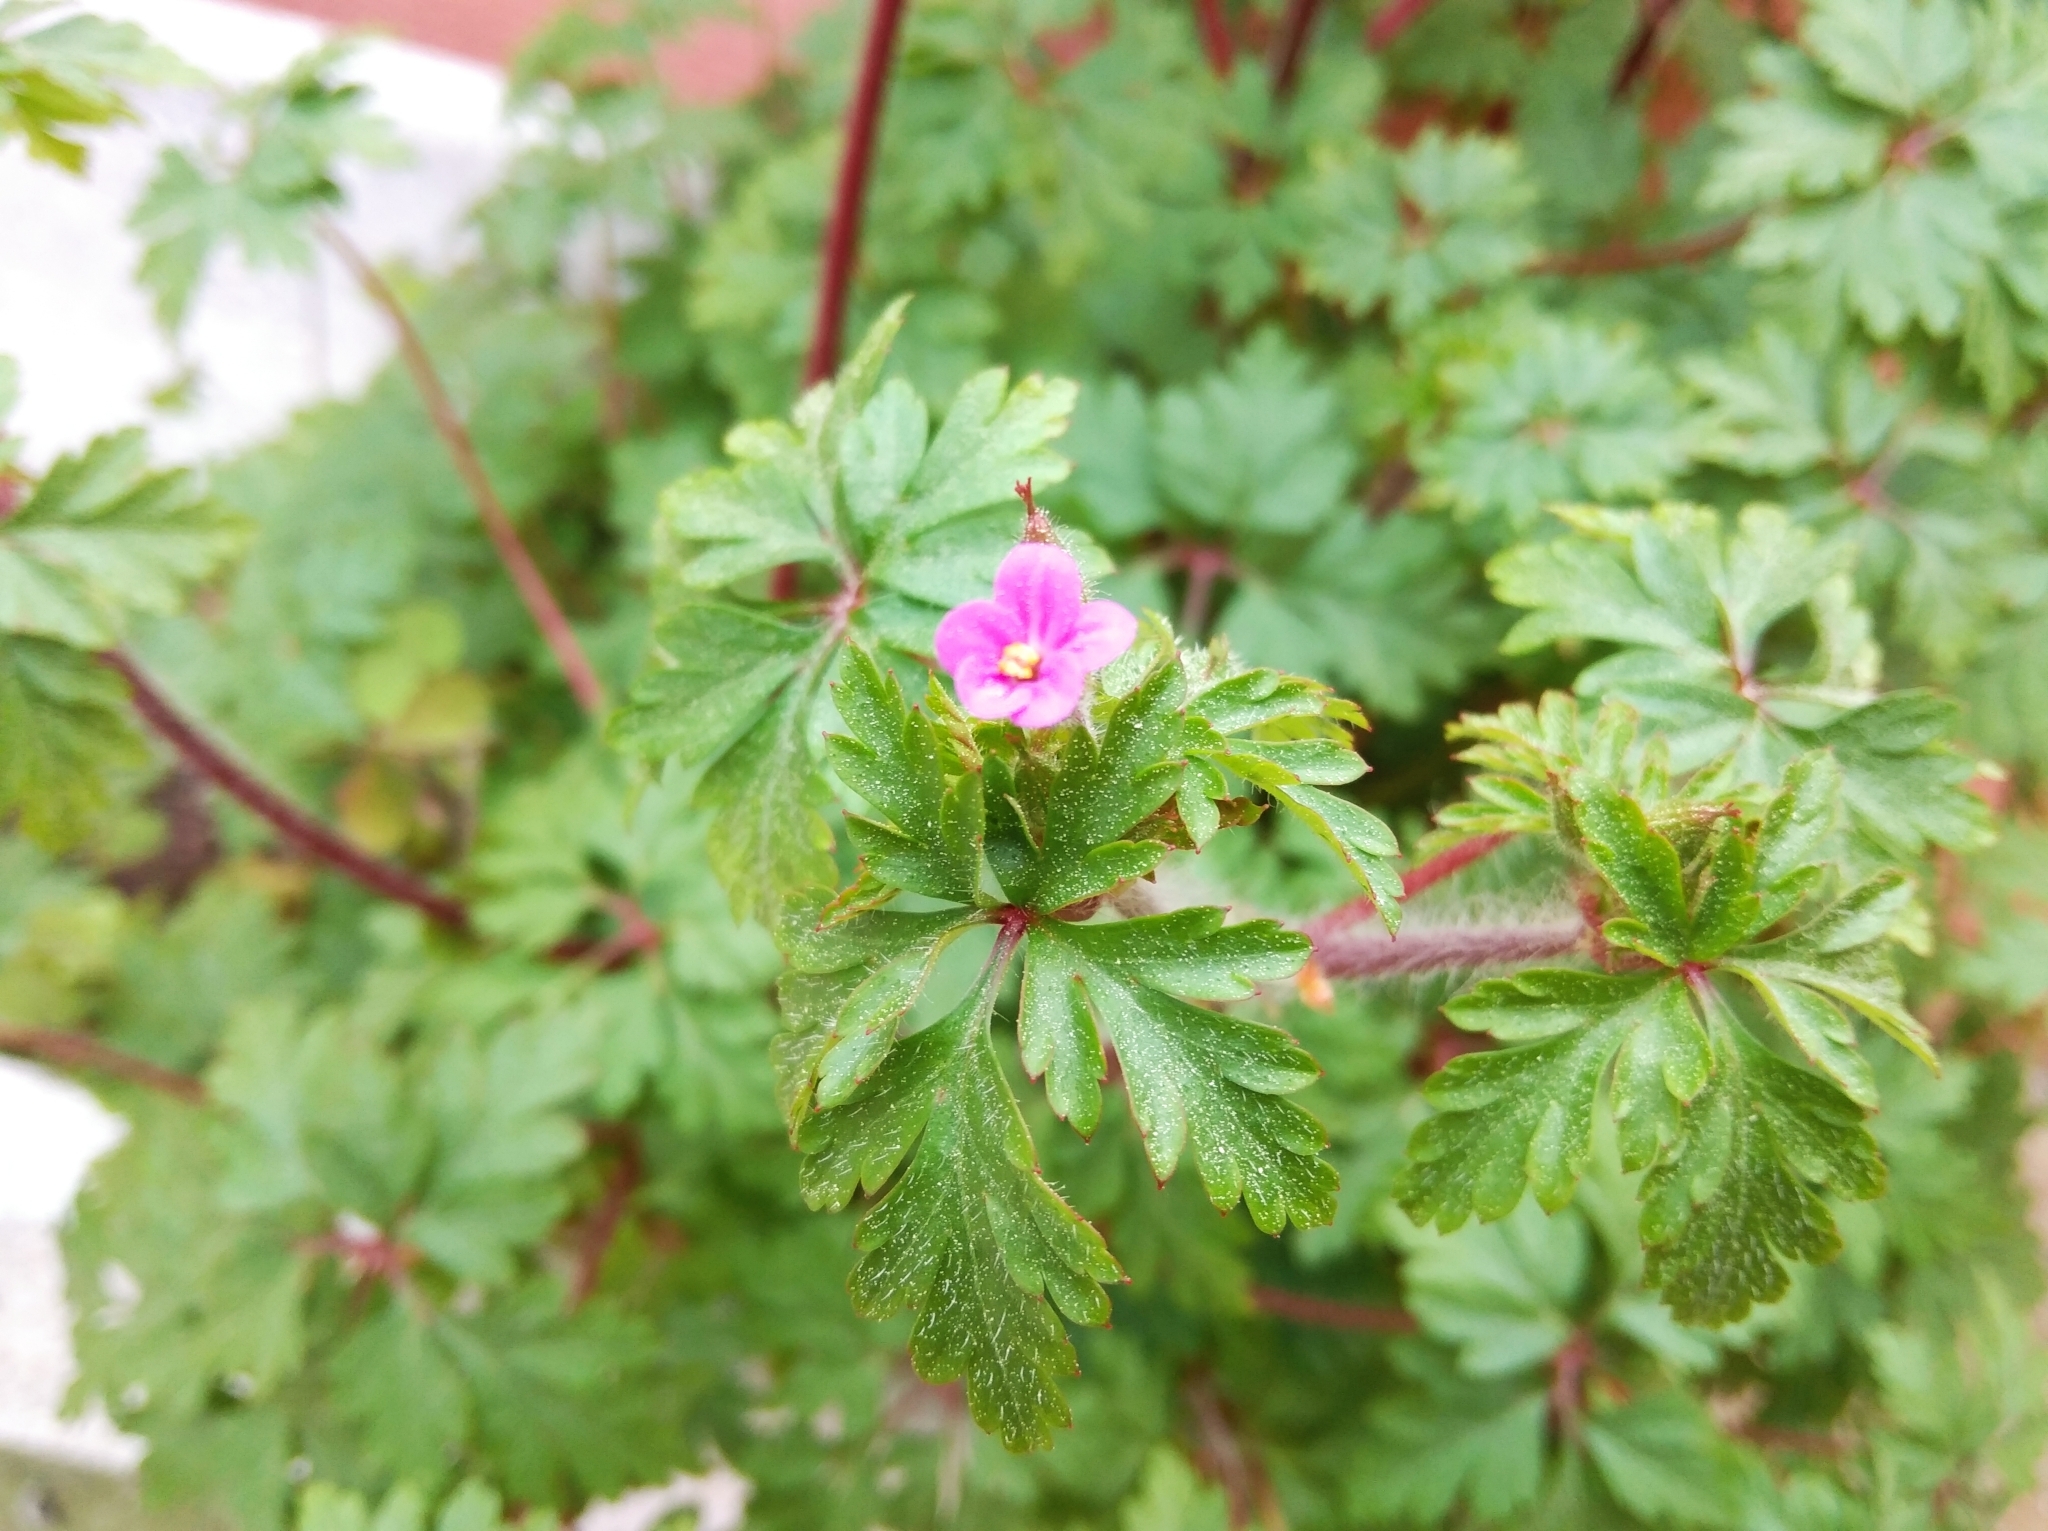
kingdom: Plantae
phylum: Tracheophyta
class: Magnoliopsida
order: Geraniales
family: Geraniaceae
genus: Geranium
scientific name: Geranium purpureum
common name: Little-robin
